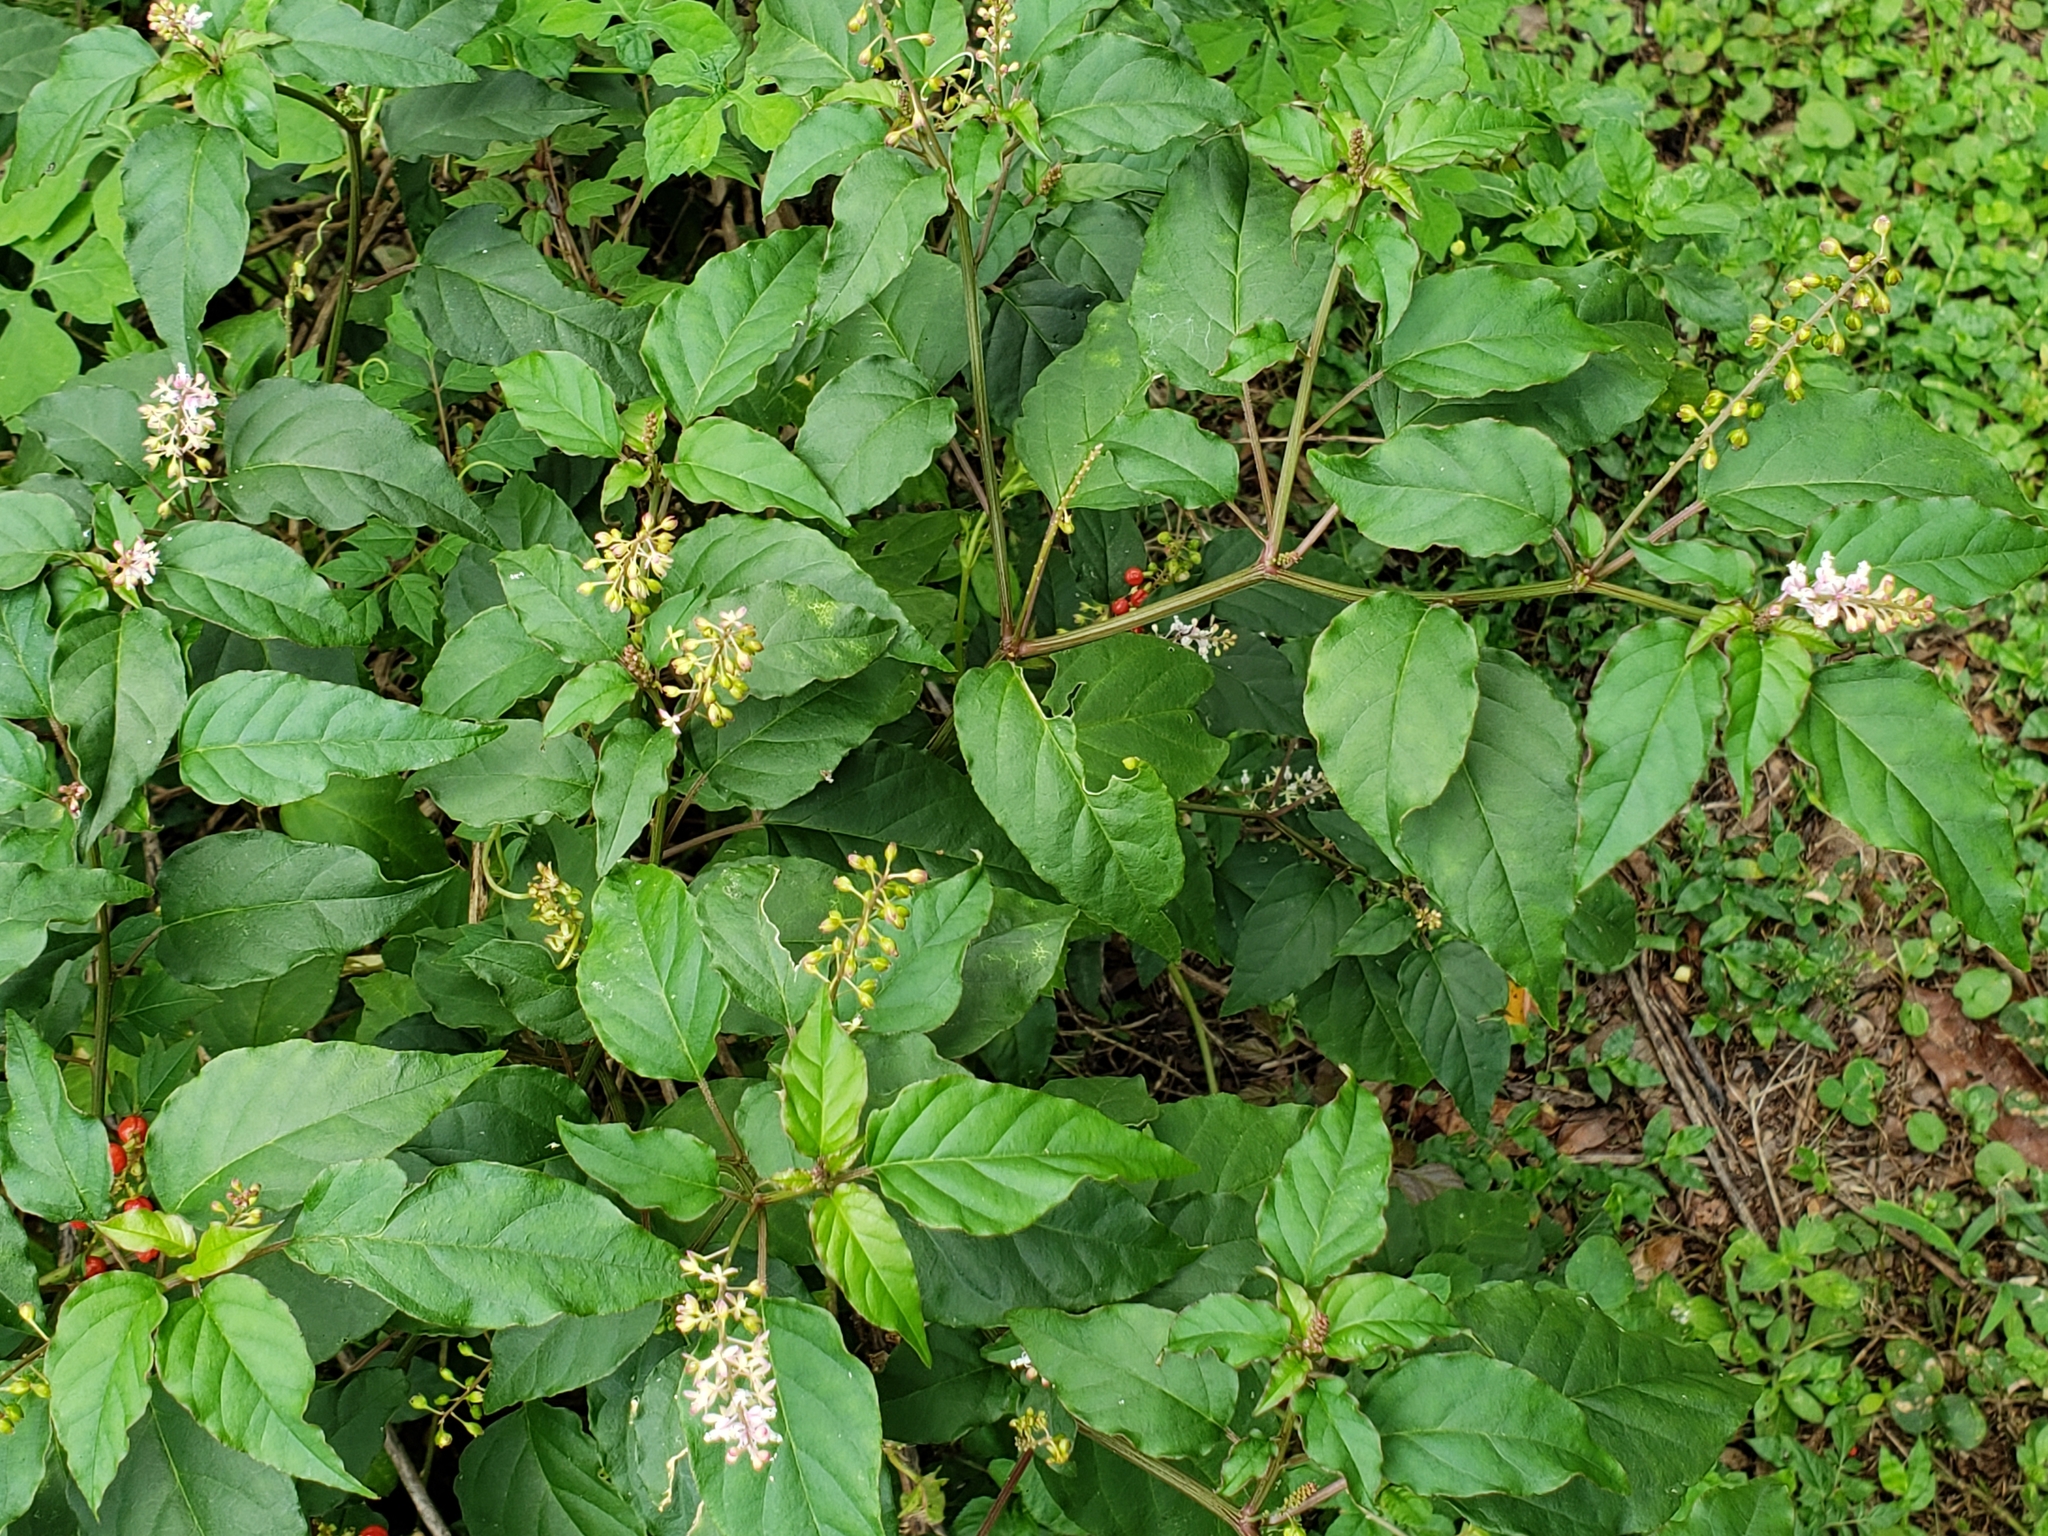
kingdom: Plantae
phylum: Tracheophyta
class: Magnoliopsida
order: Caryophyllales
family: Phytolaccaceae
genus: Rivina
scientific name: Rivina humilis
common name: Rougeplant
